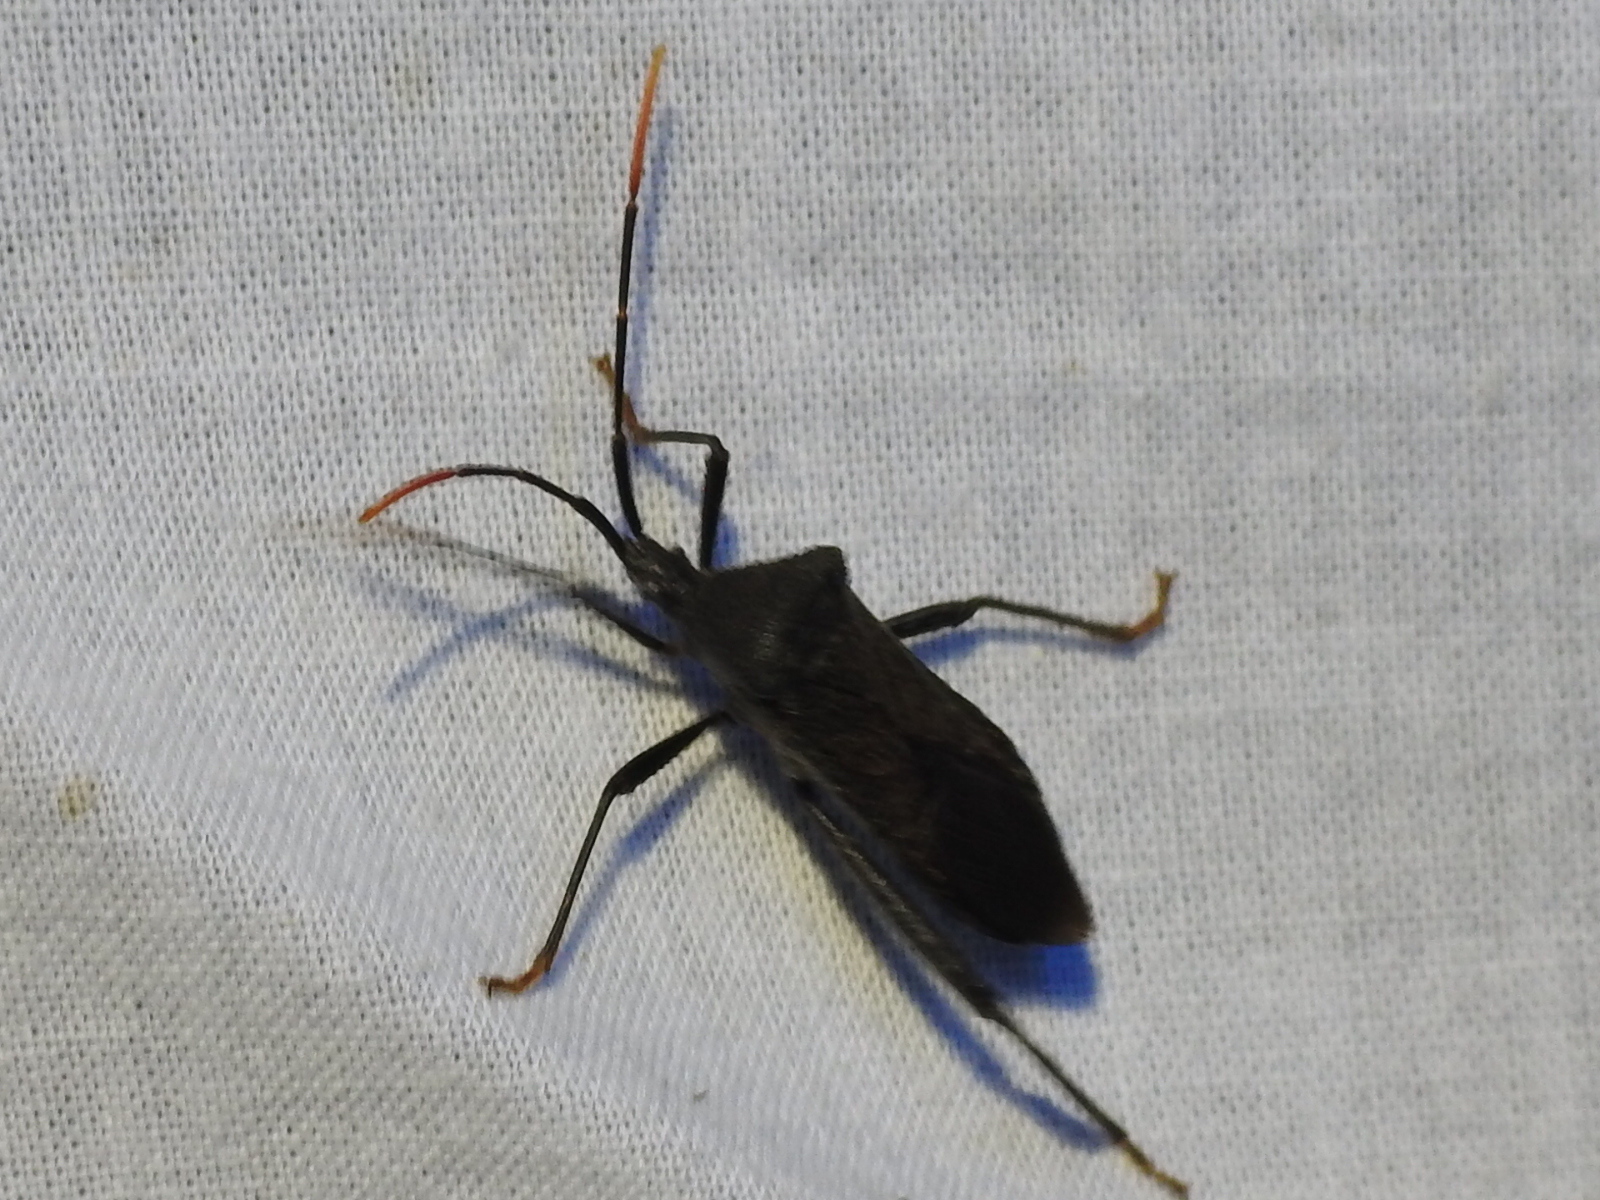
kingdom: Animalia
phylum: Arthropoda
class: Insecta
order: Hemiptera
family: Coreidae
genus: Acanthocephala
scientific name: Acanthocephala terminalis
